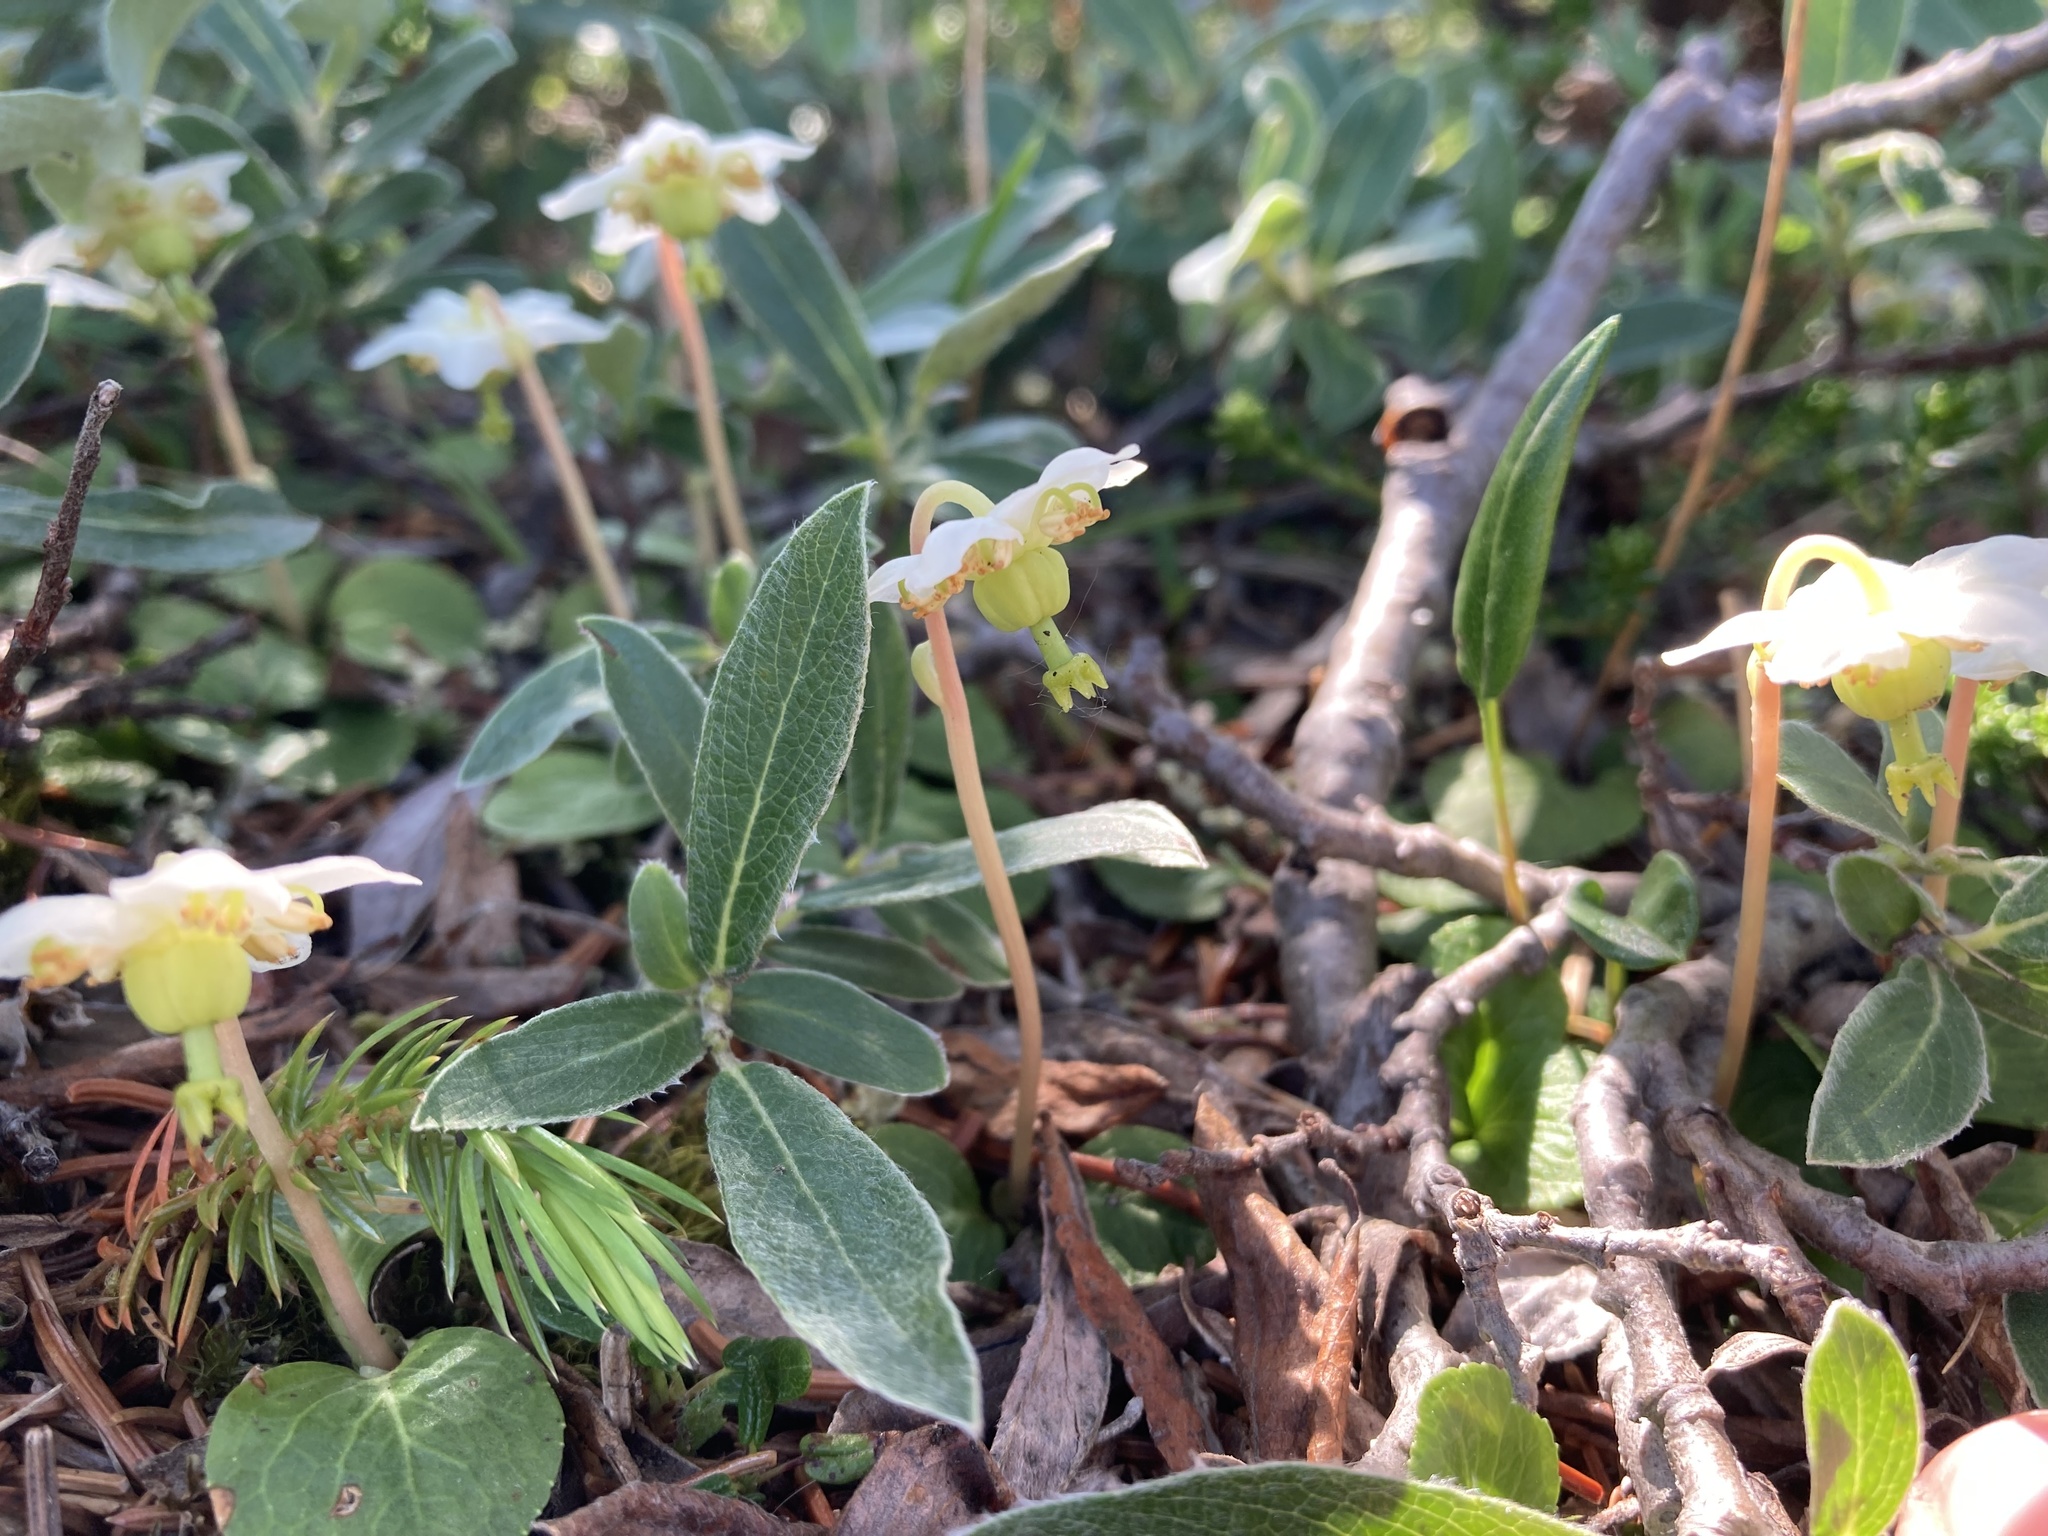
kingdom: Plantae
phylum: Tracheophyta
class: Magnoliopsida
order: Ericales
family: Ericaceae
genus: Moneses
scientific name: Moneses uniflora
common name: One-flowered wintergreen
